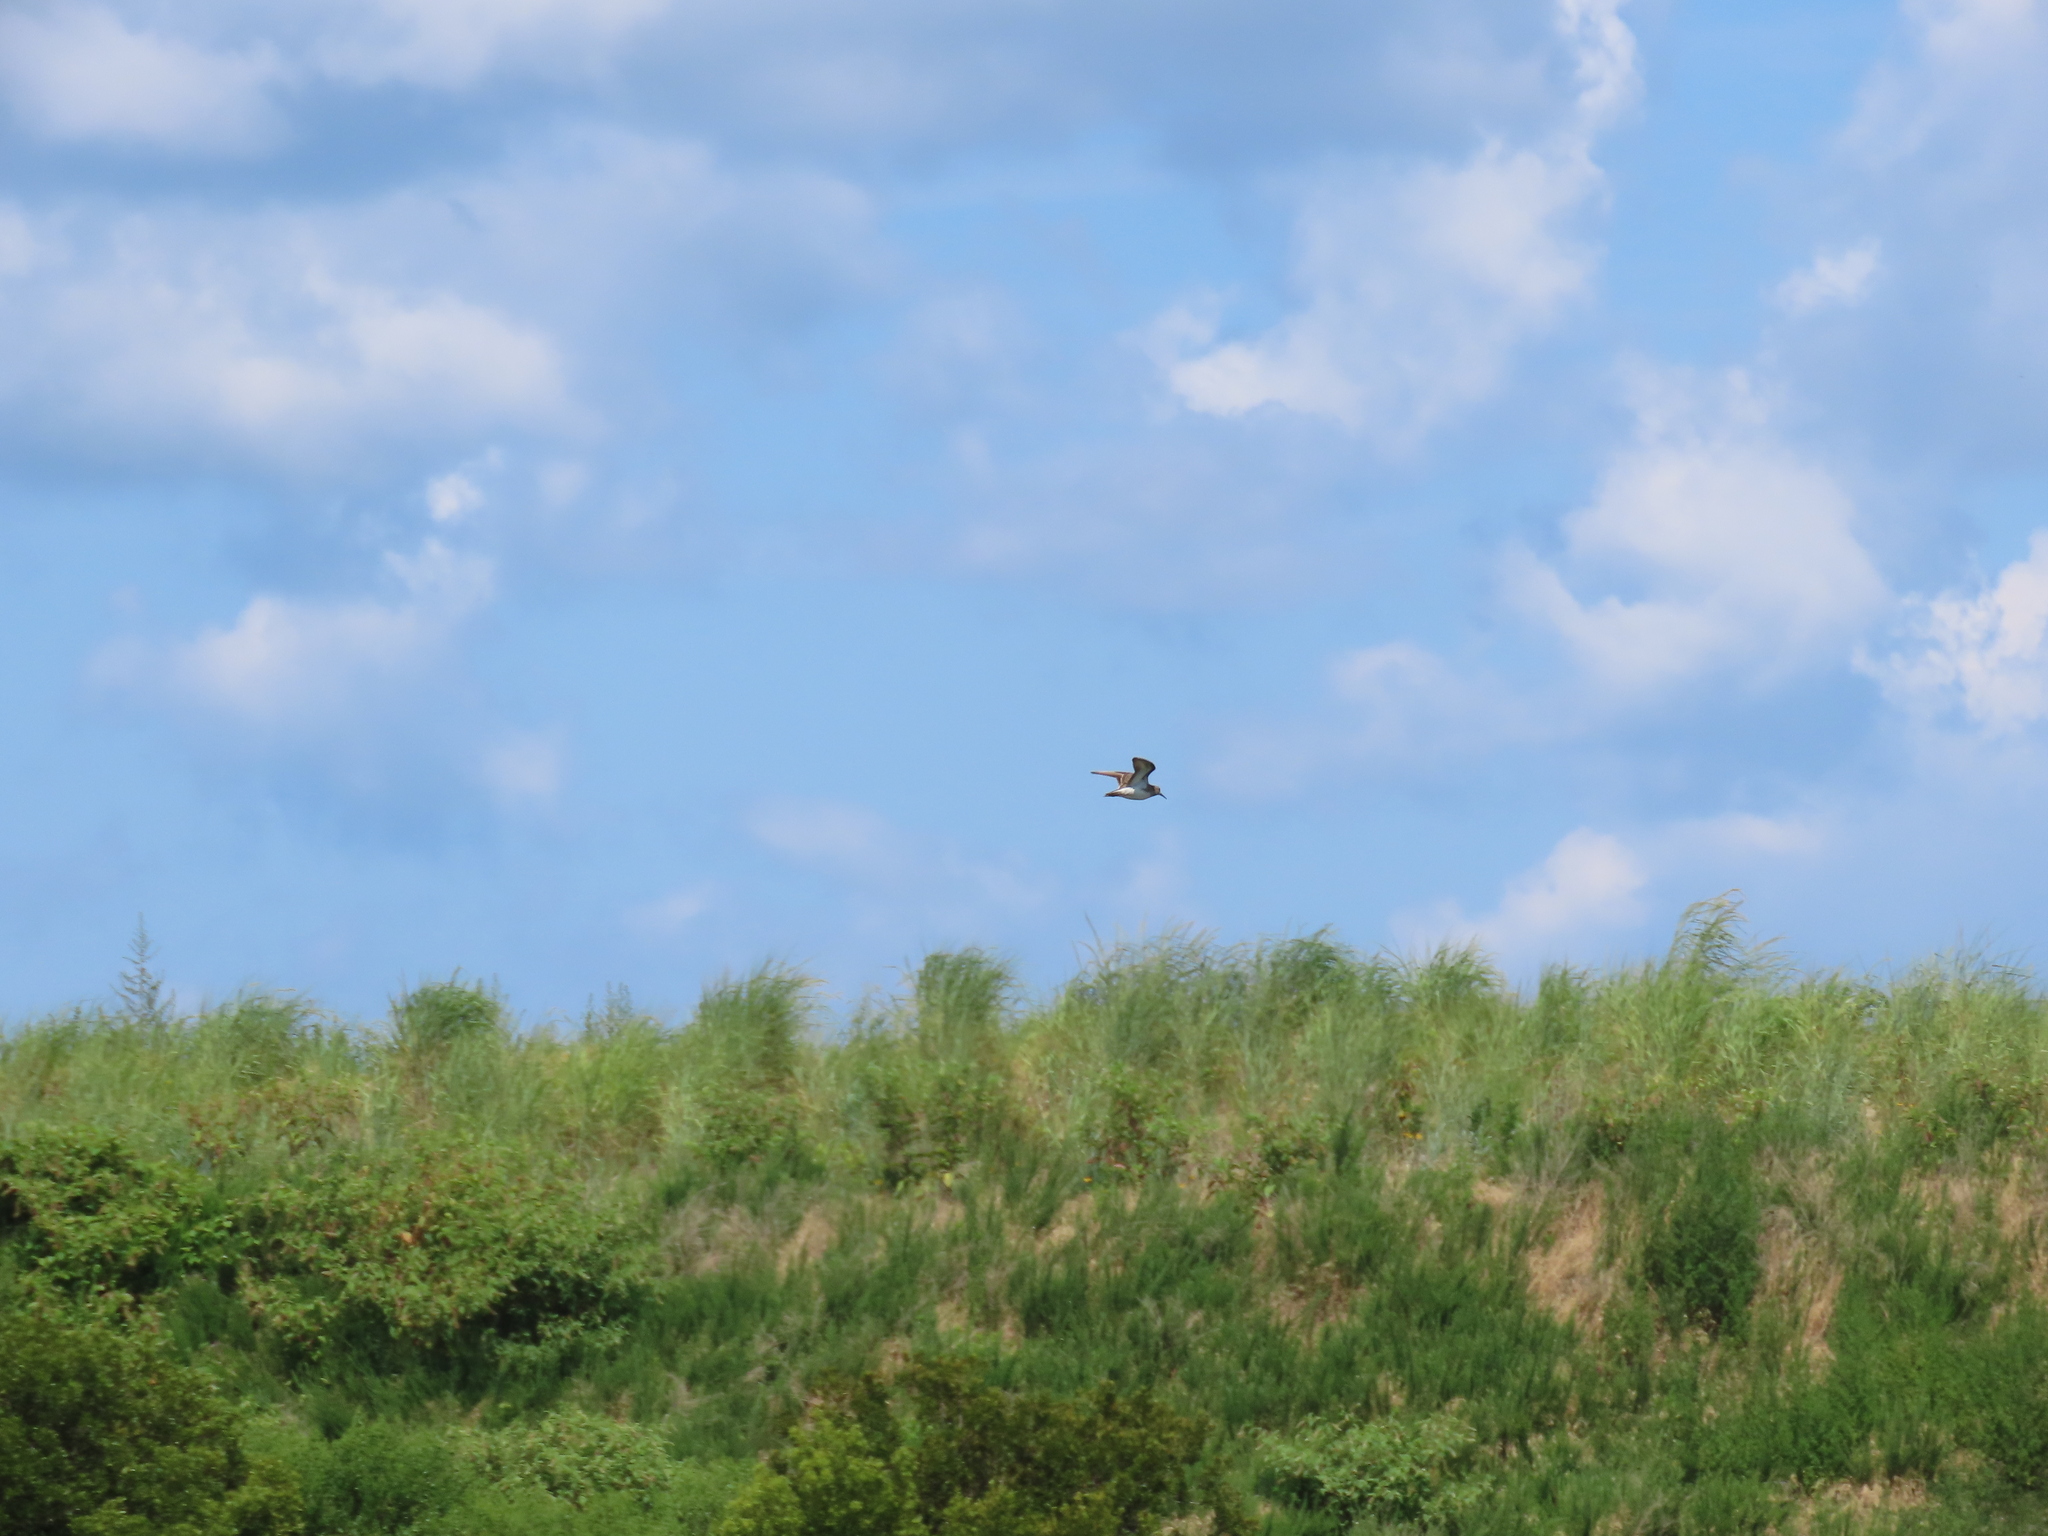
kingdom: Animalia
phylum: Chordata
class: Aves
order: Charadriiformes
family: Scolopacidae
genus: Calidris
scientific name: Calidris melanotos
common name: Pectoral sandpiper
